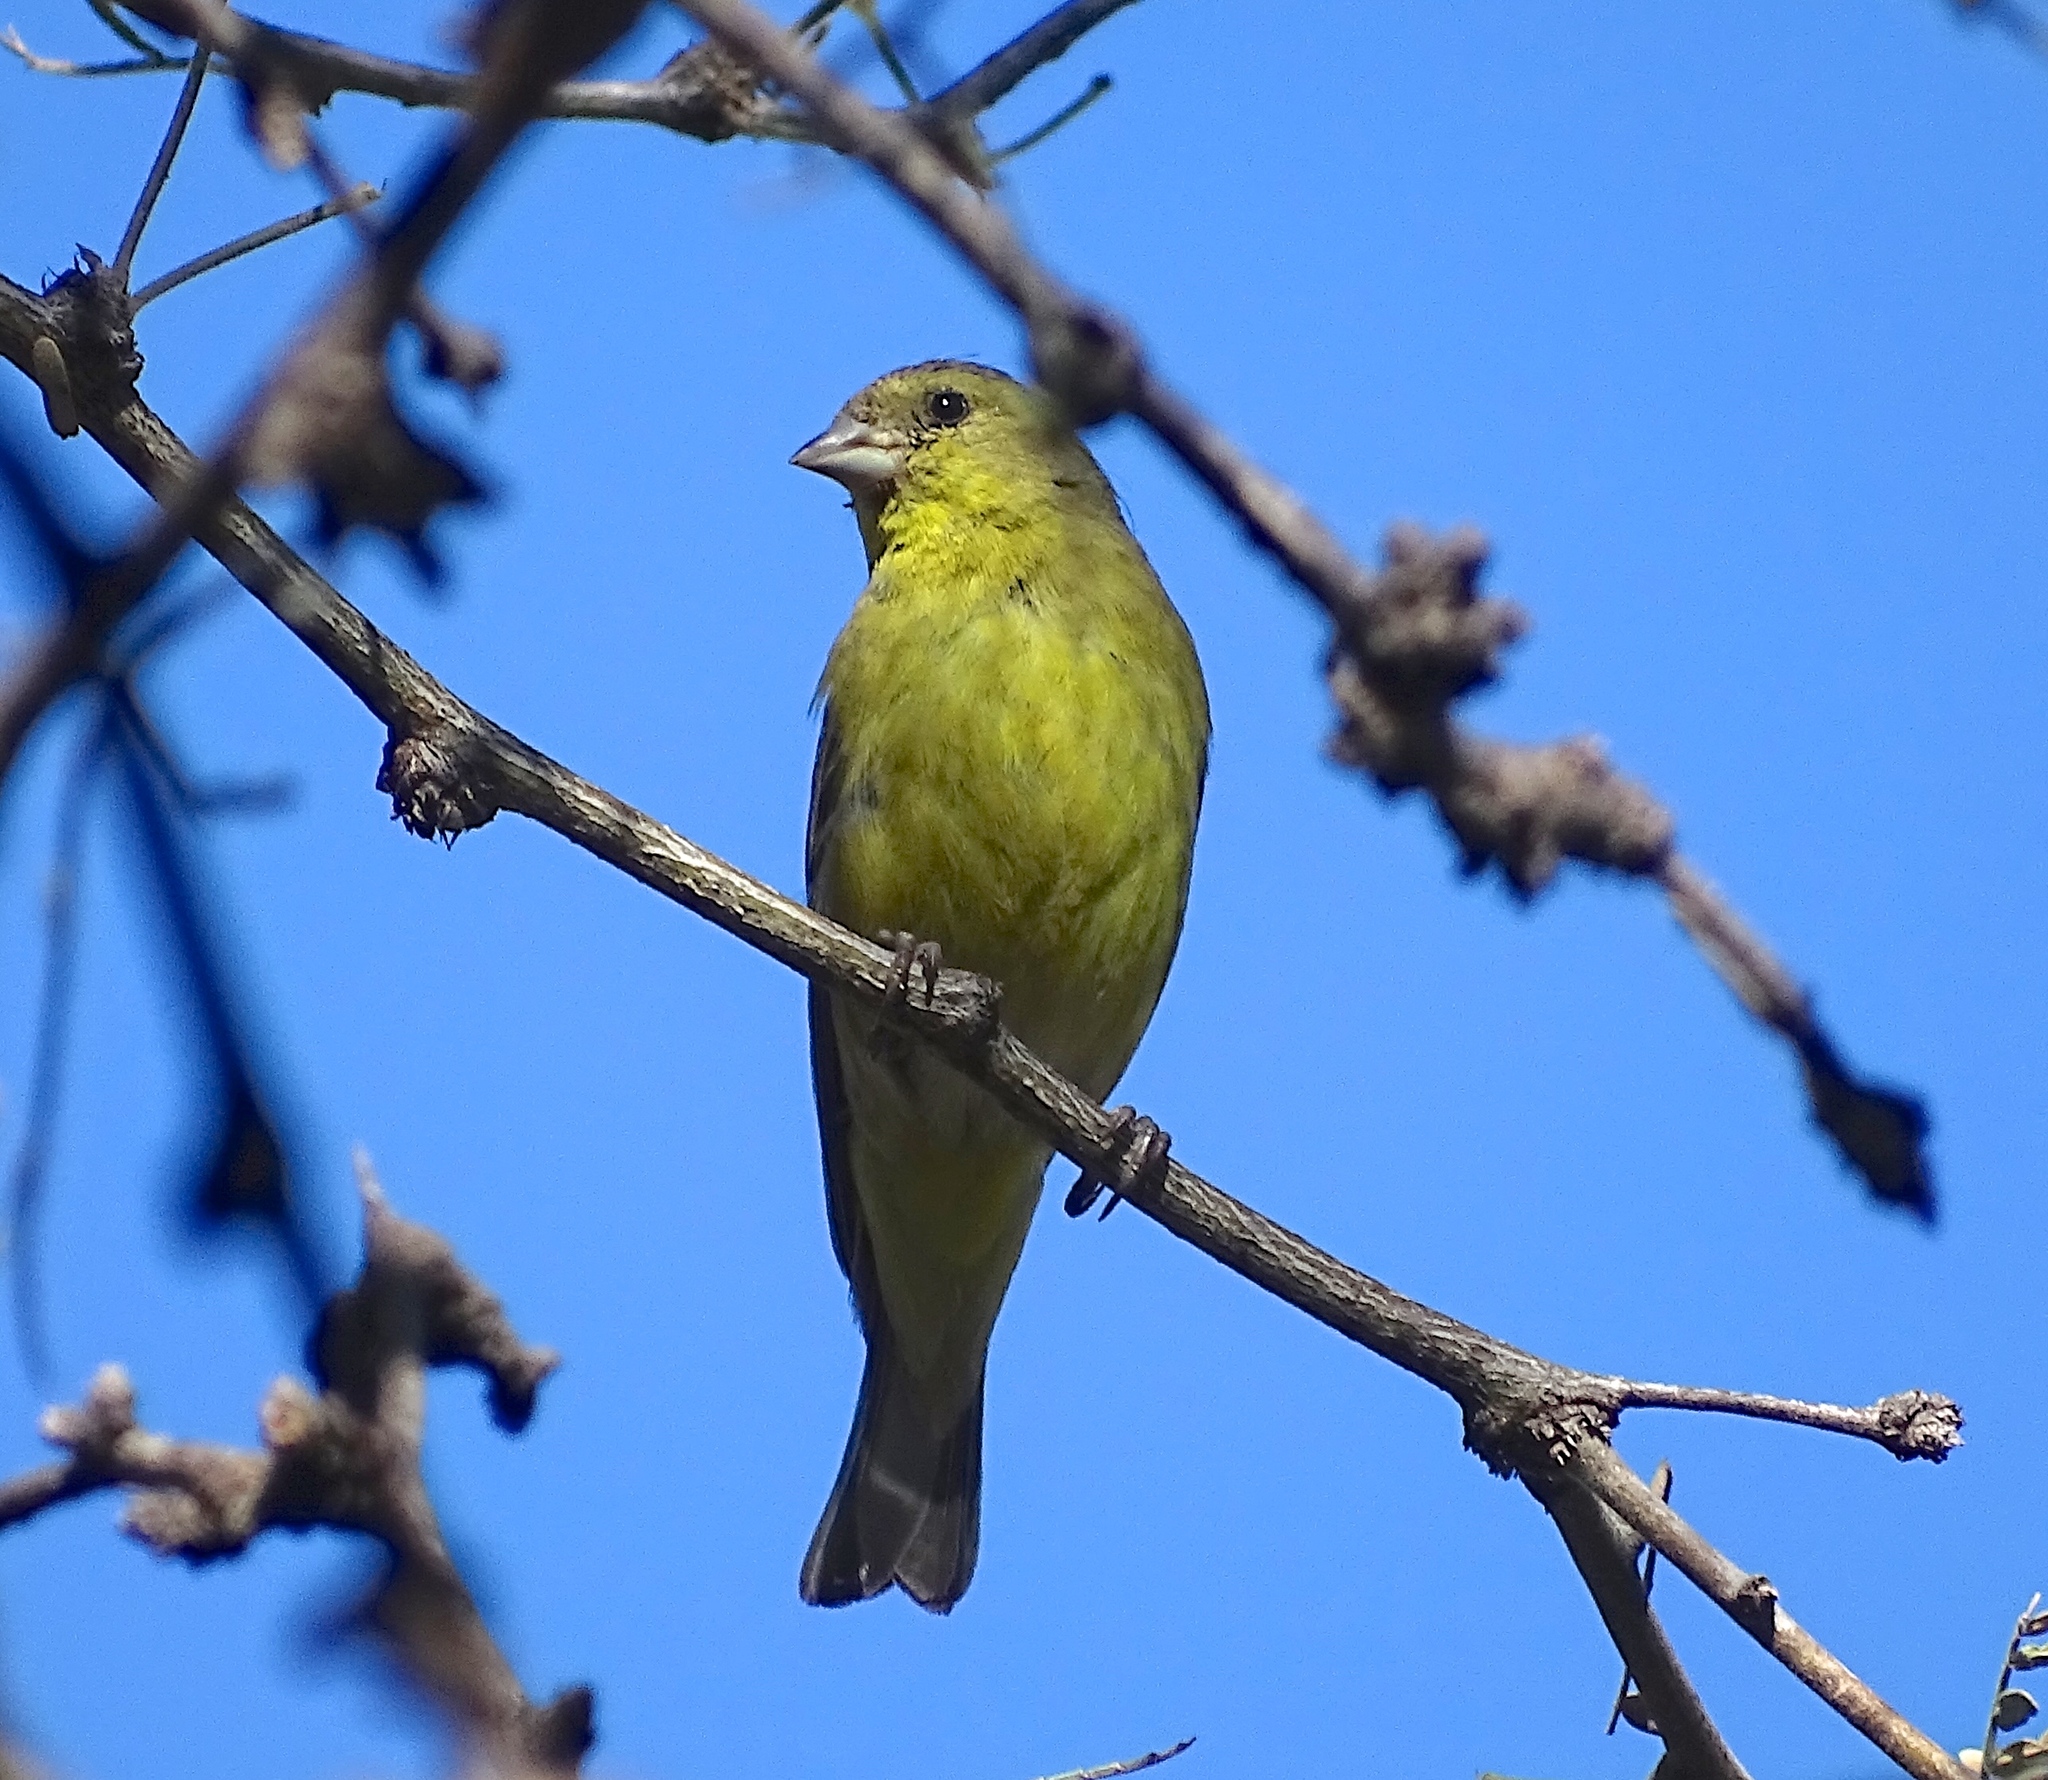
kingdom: Animalia
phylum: Chordata
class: Aves
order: Passeriformes
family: Fringillidae
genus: Spinus
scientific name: Spinus psaltria
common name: Lesser goldfinch
